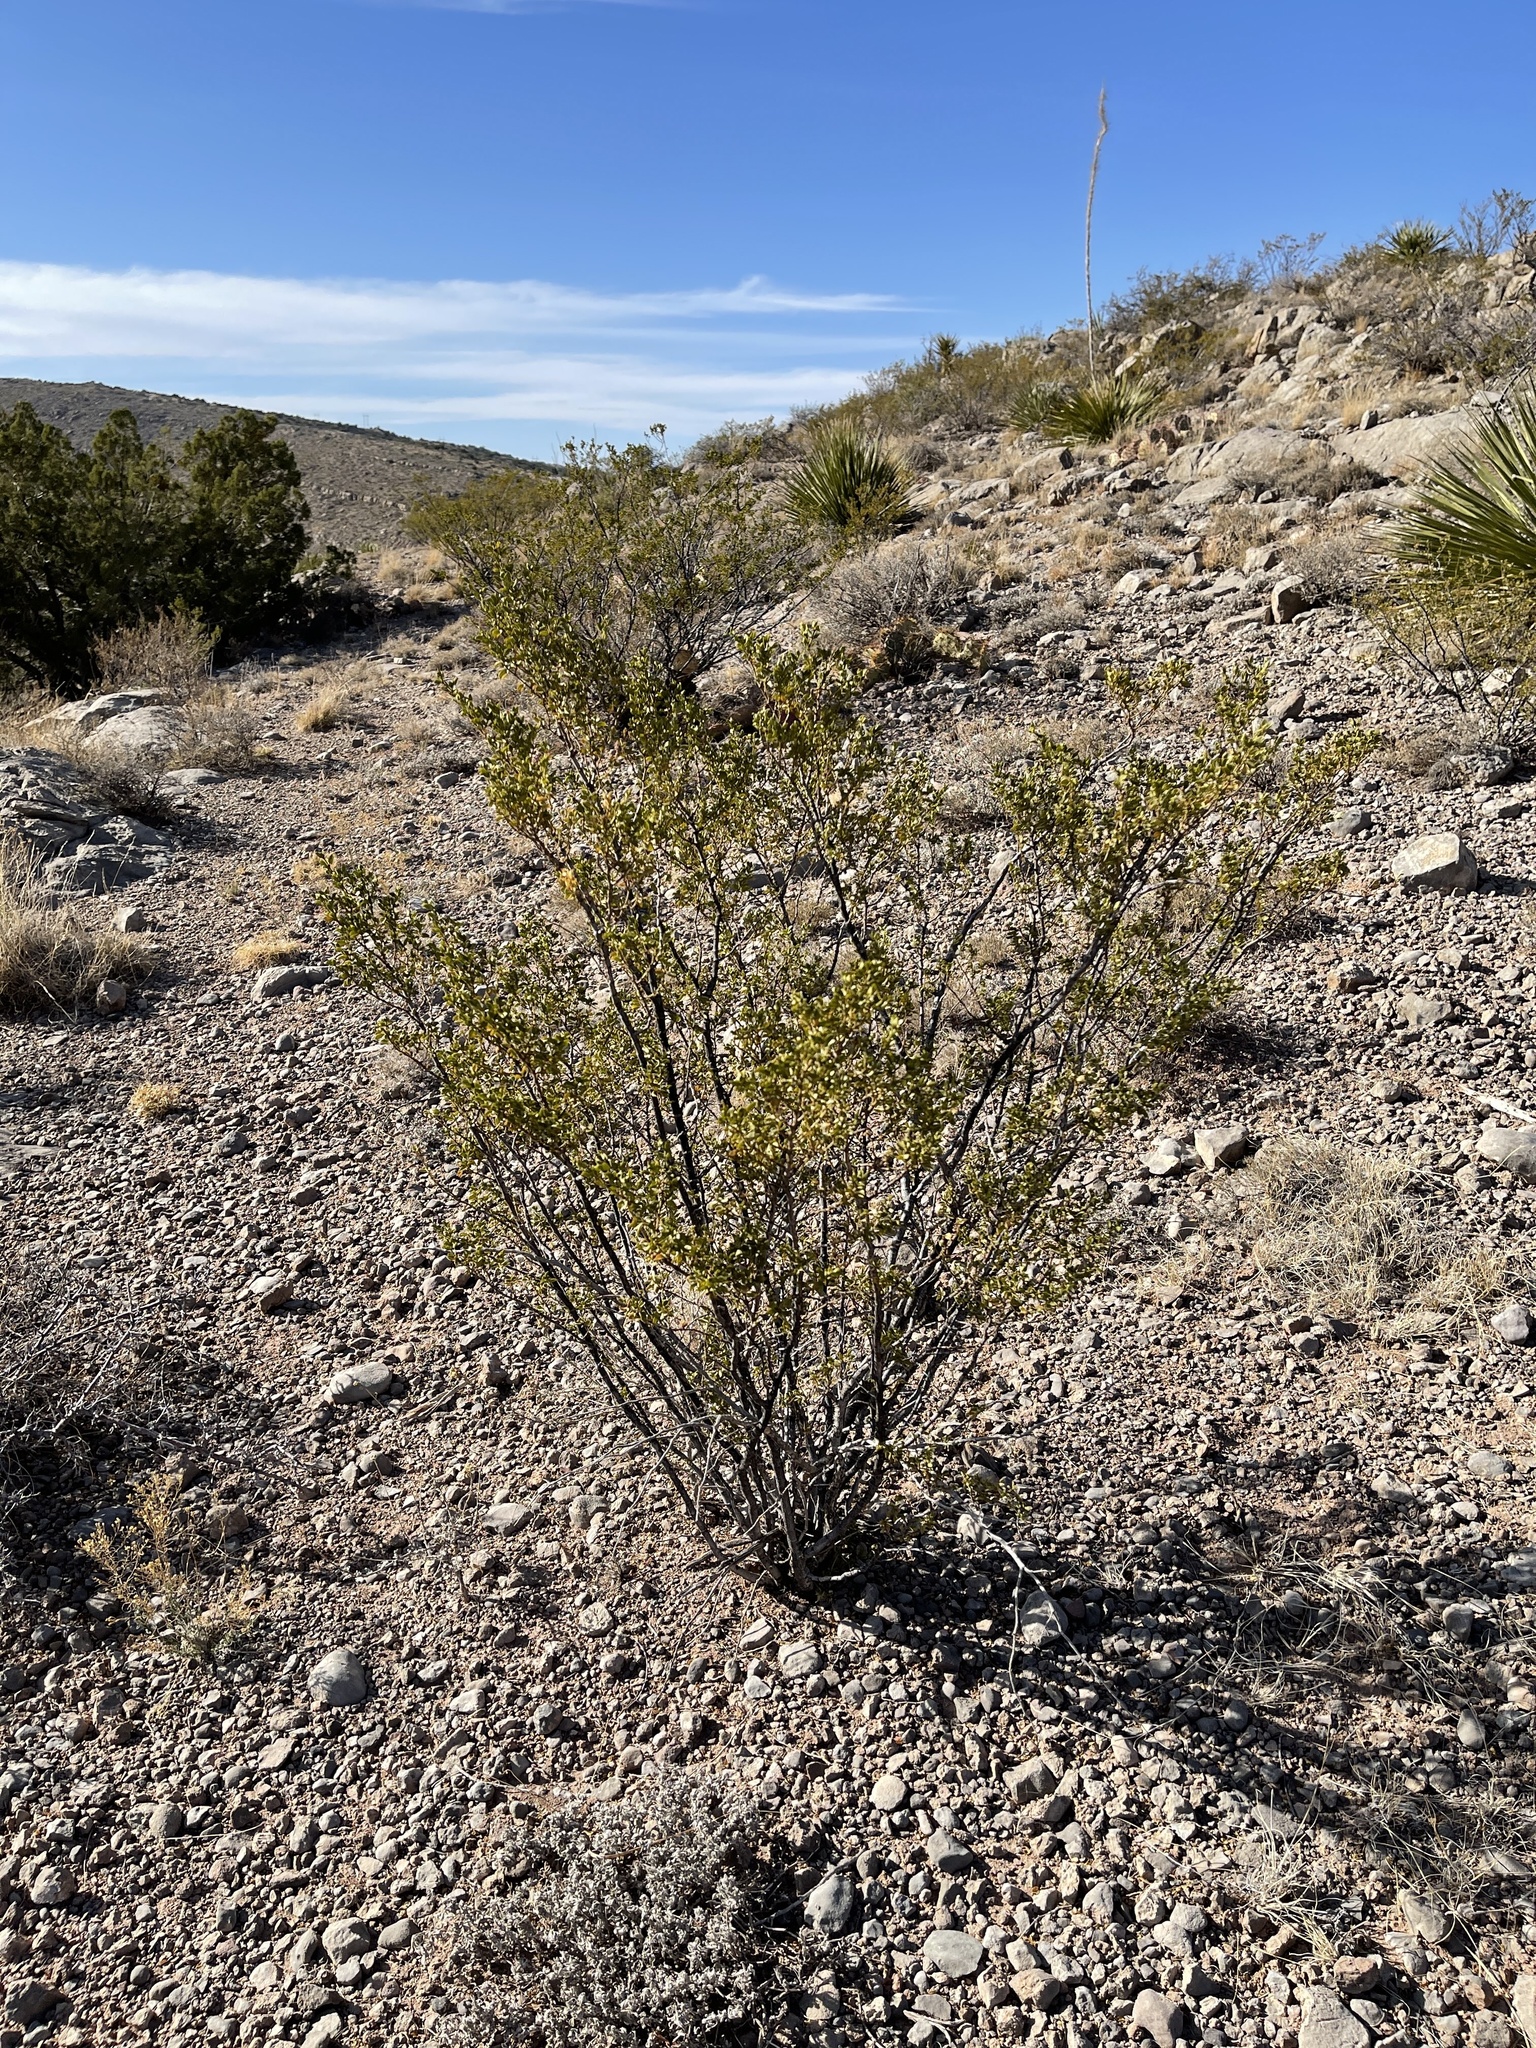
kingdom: Plantae
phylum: Tracheophyta
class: Magnoliopsida
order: Zygophyllales
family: Zygophyllaceae
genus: Larrea
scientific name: Larrea tridentata
